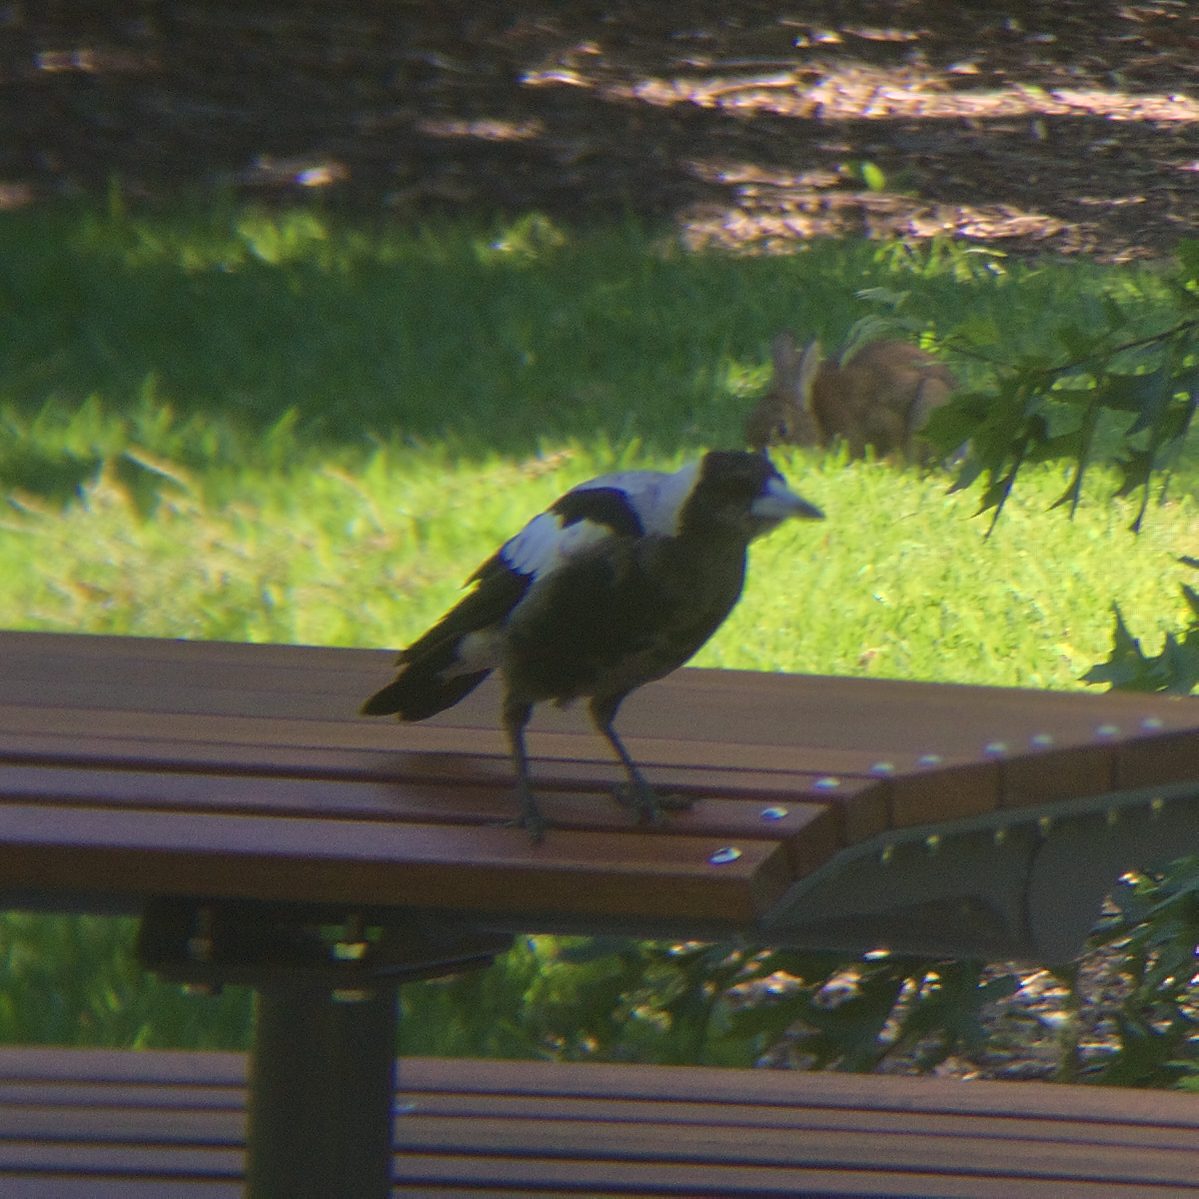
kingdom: Animalia
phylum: Chordata
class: Aves
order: Passeriformes
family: Cracticidae
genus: Gymnorhina
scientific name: Gymnorhina tibicen
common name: Australian magpie
